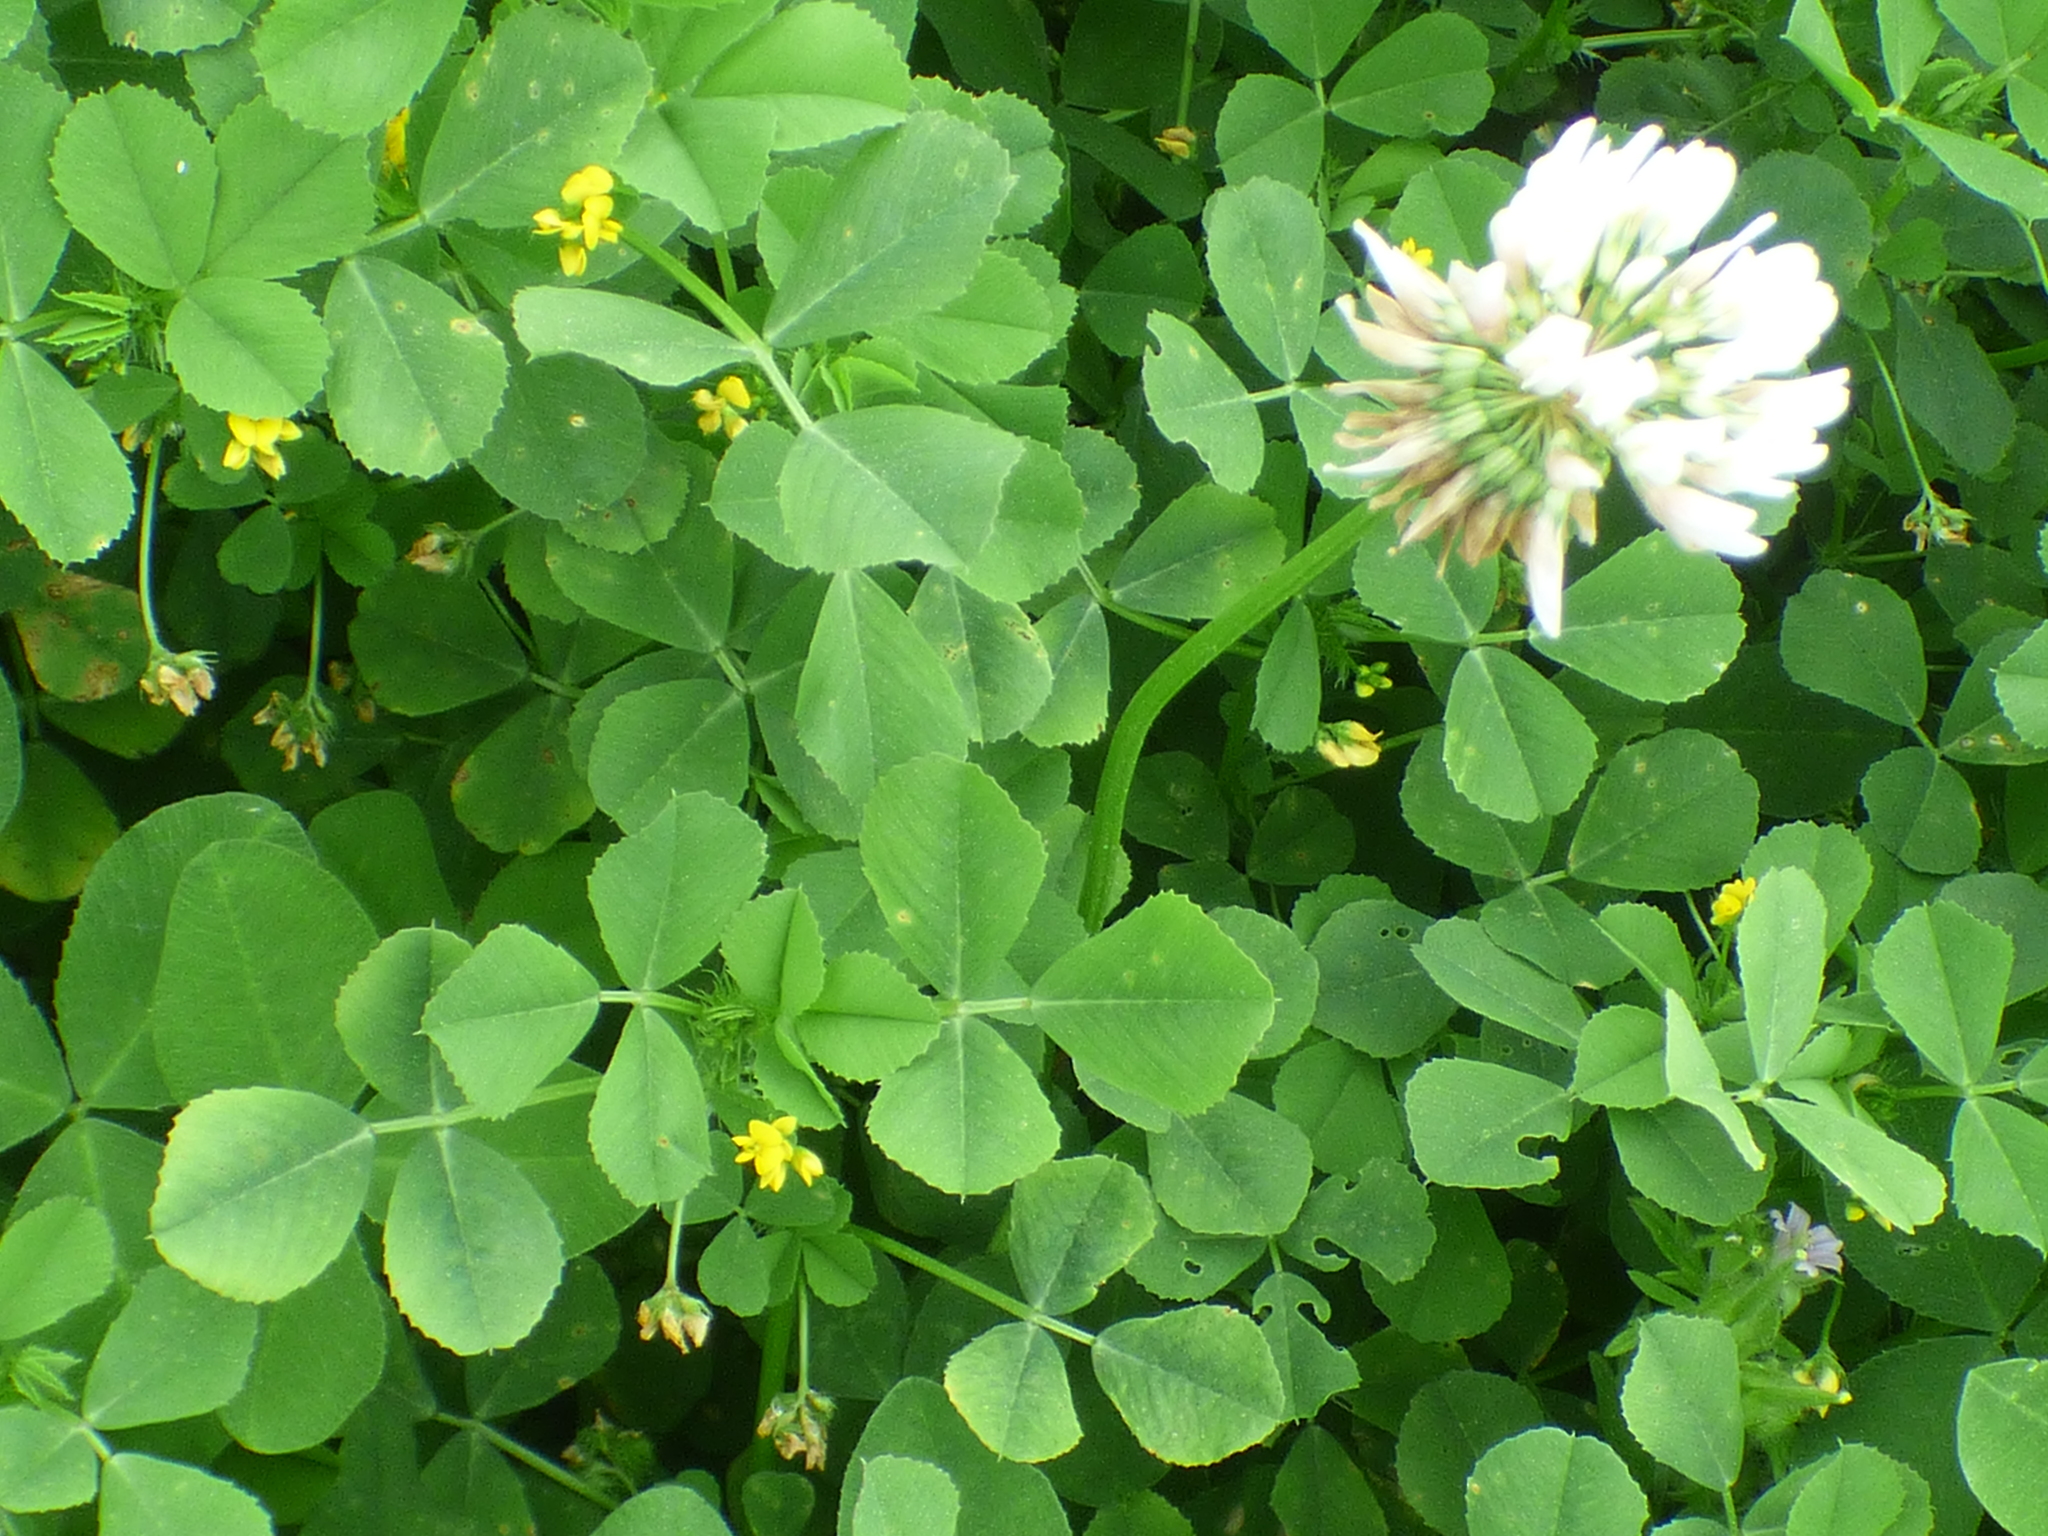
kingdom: Plantae
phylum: Tracheophyta
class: Magnoliopsida
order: Fabales
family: Fabaceae
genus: Trifolium
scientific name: Trifolium repens
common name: White clover
